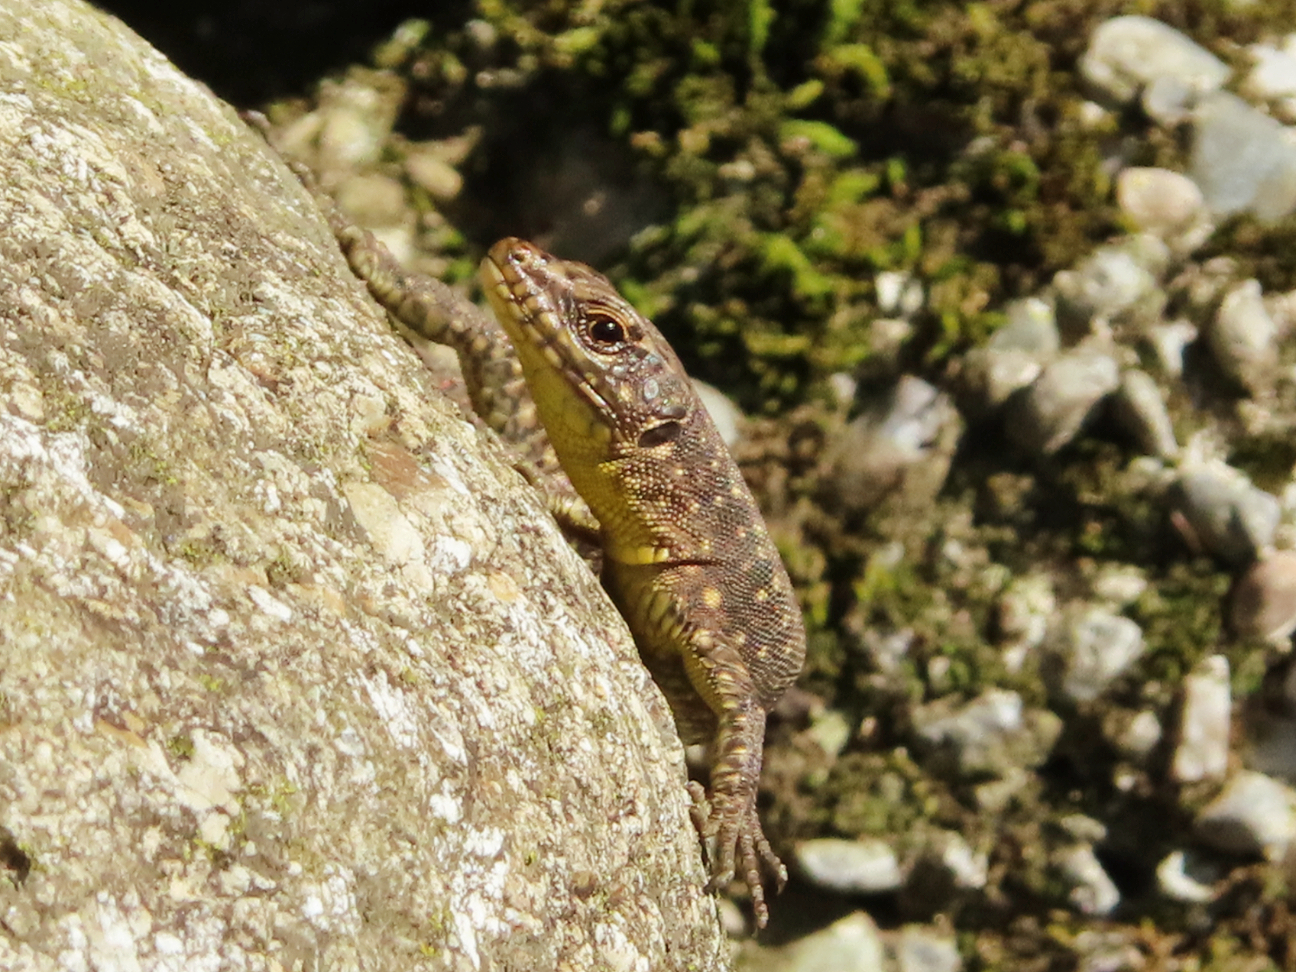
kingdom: Animalia
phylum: Chordata
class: Squamata
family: Lacertidae
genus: Darevskia
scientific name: Darevskia rudis
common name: Spiny-tailed lizard
